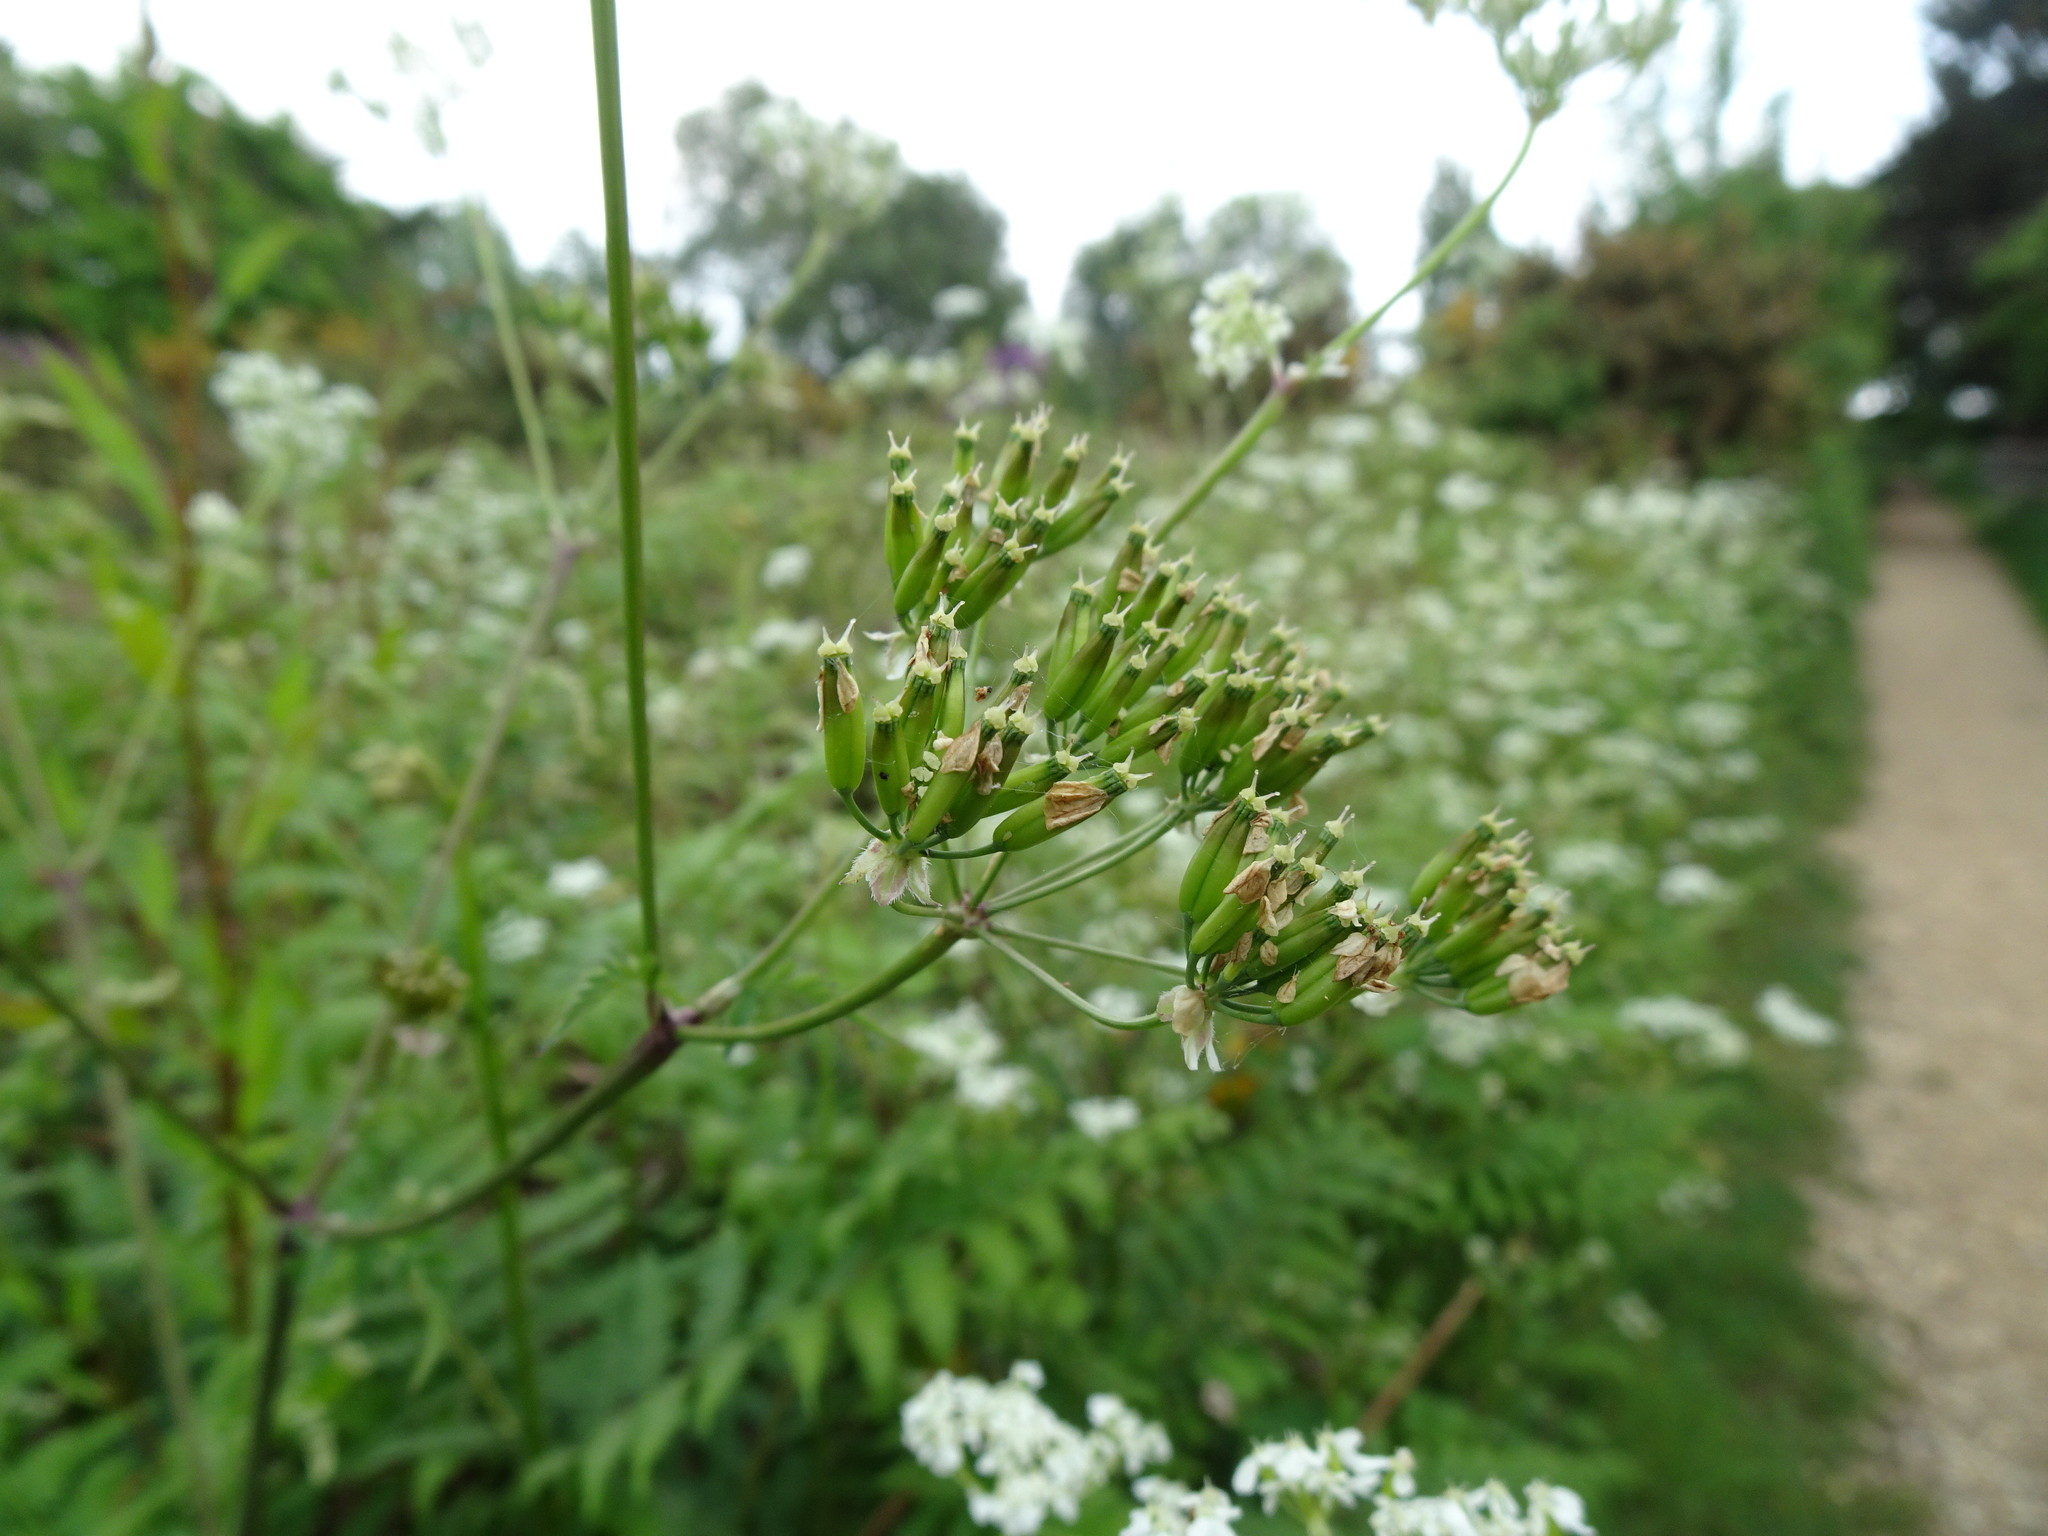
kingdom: Plantae
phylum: Tracheophyta
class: Magnoliopsida
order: Apiales
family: Apiaceae
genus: Anthriscus
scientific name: Anthriscus sylvestris
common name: Cow parsley
